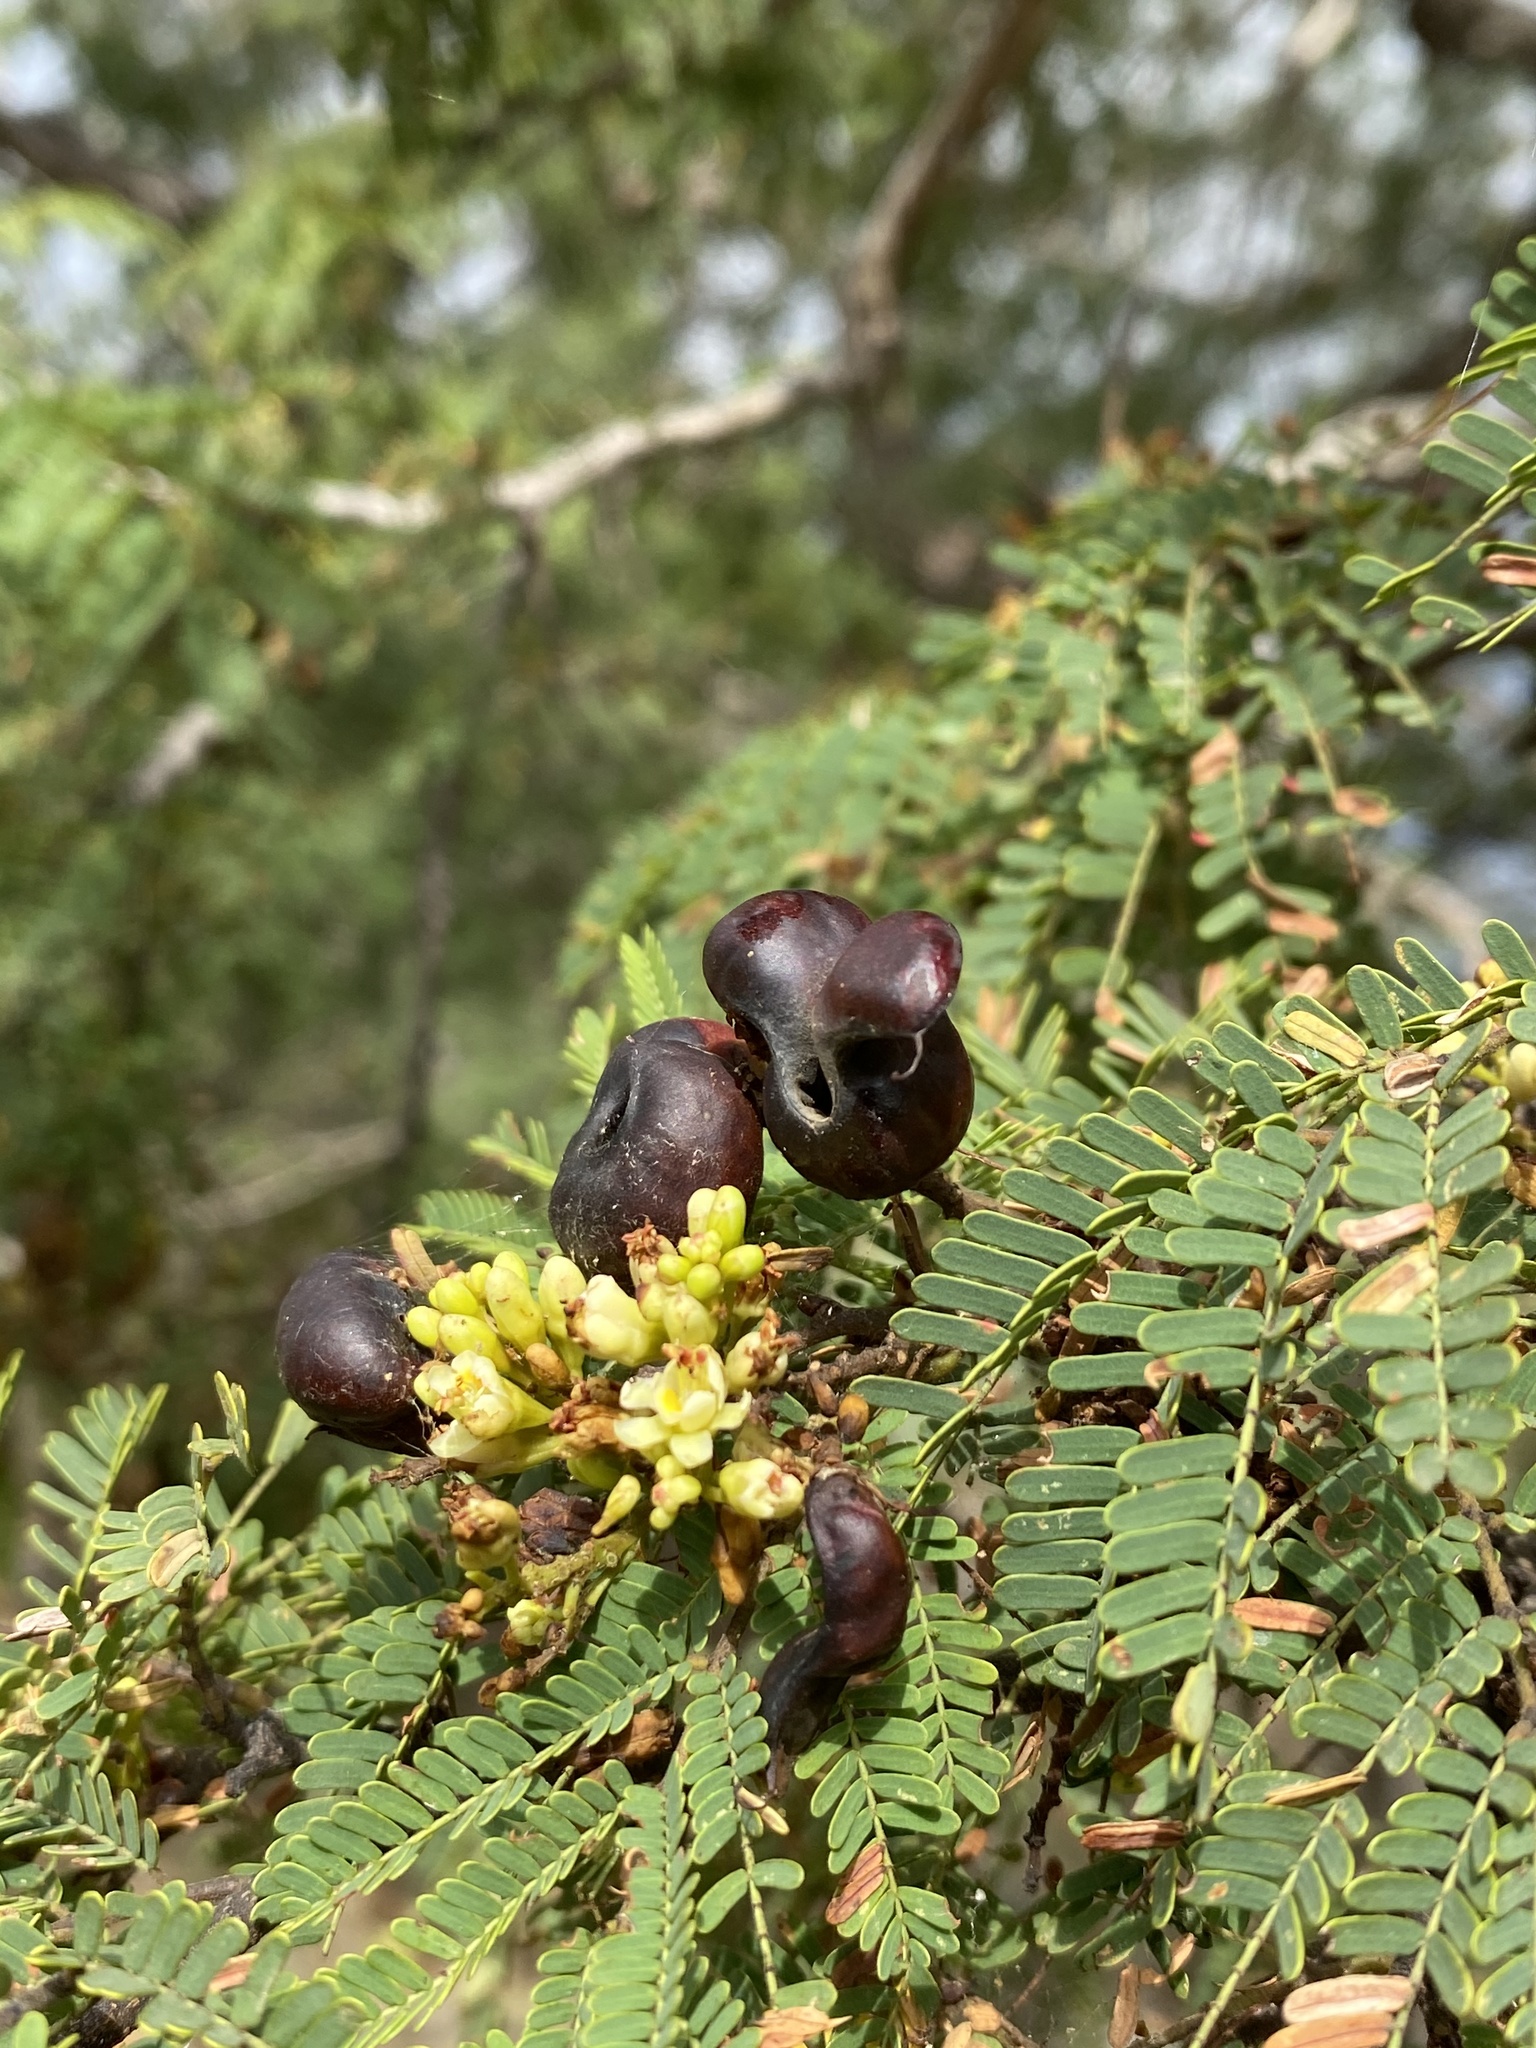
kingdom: Plantae
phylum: Tracheophyta
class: Magnoliopsida
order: Fabales
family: Fabaceae
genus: Libidibia
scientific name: Libidibia coriaria
